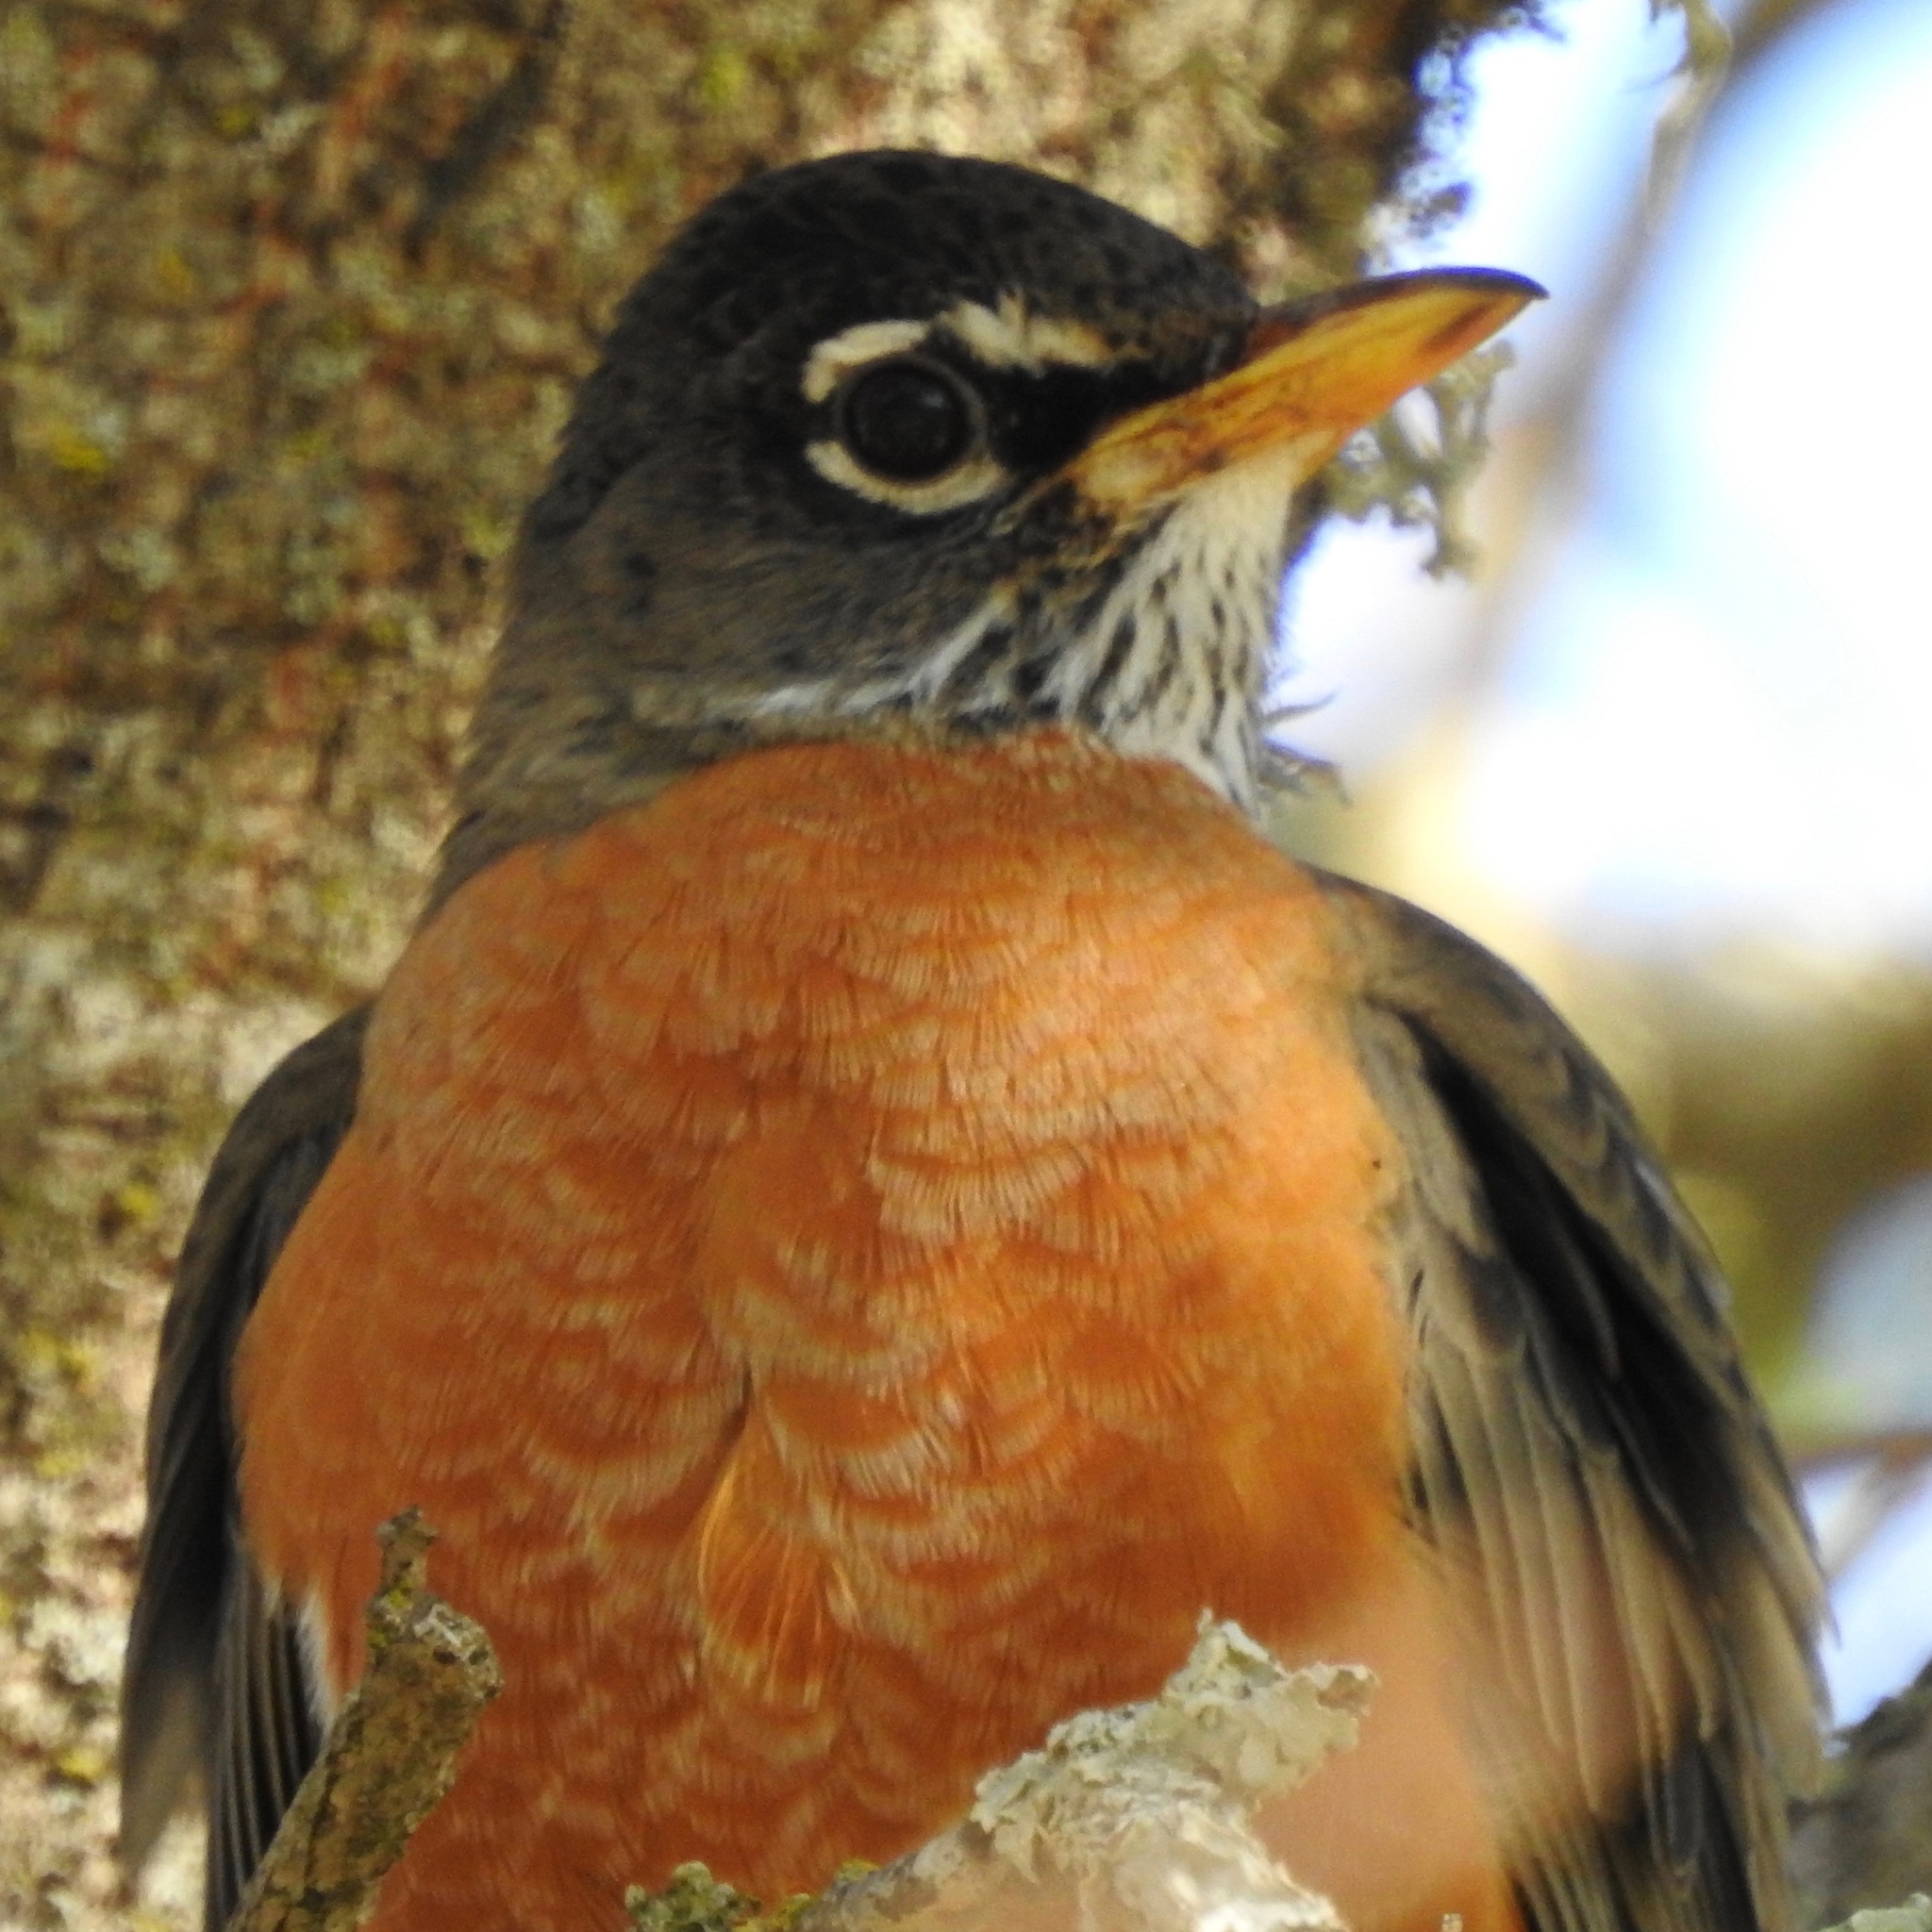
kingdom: Animalia
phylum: Chordata
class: Aves
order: Passeriformes
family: Turdidae
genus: Turdus
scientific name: Turdus migratorius
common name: American robin
